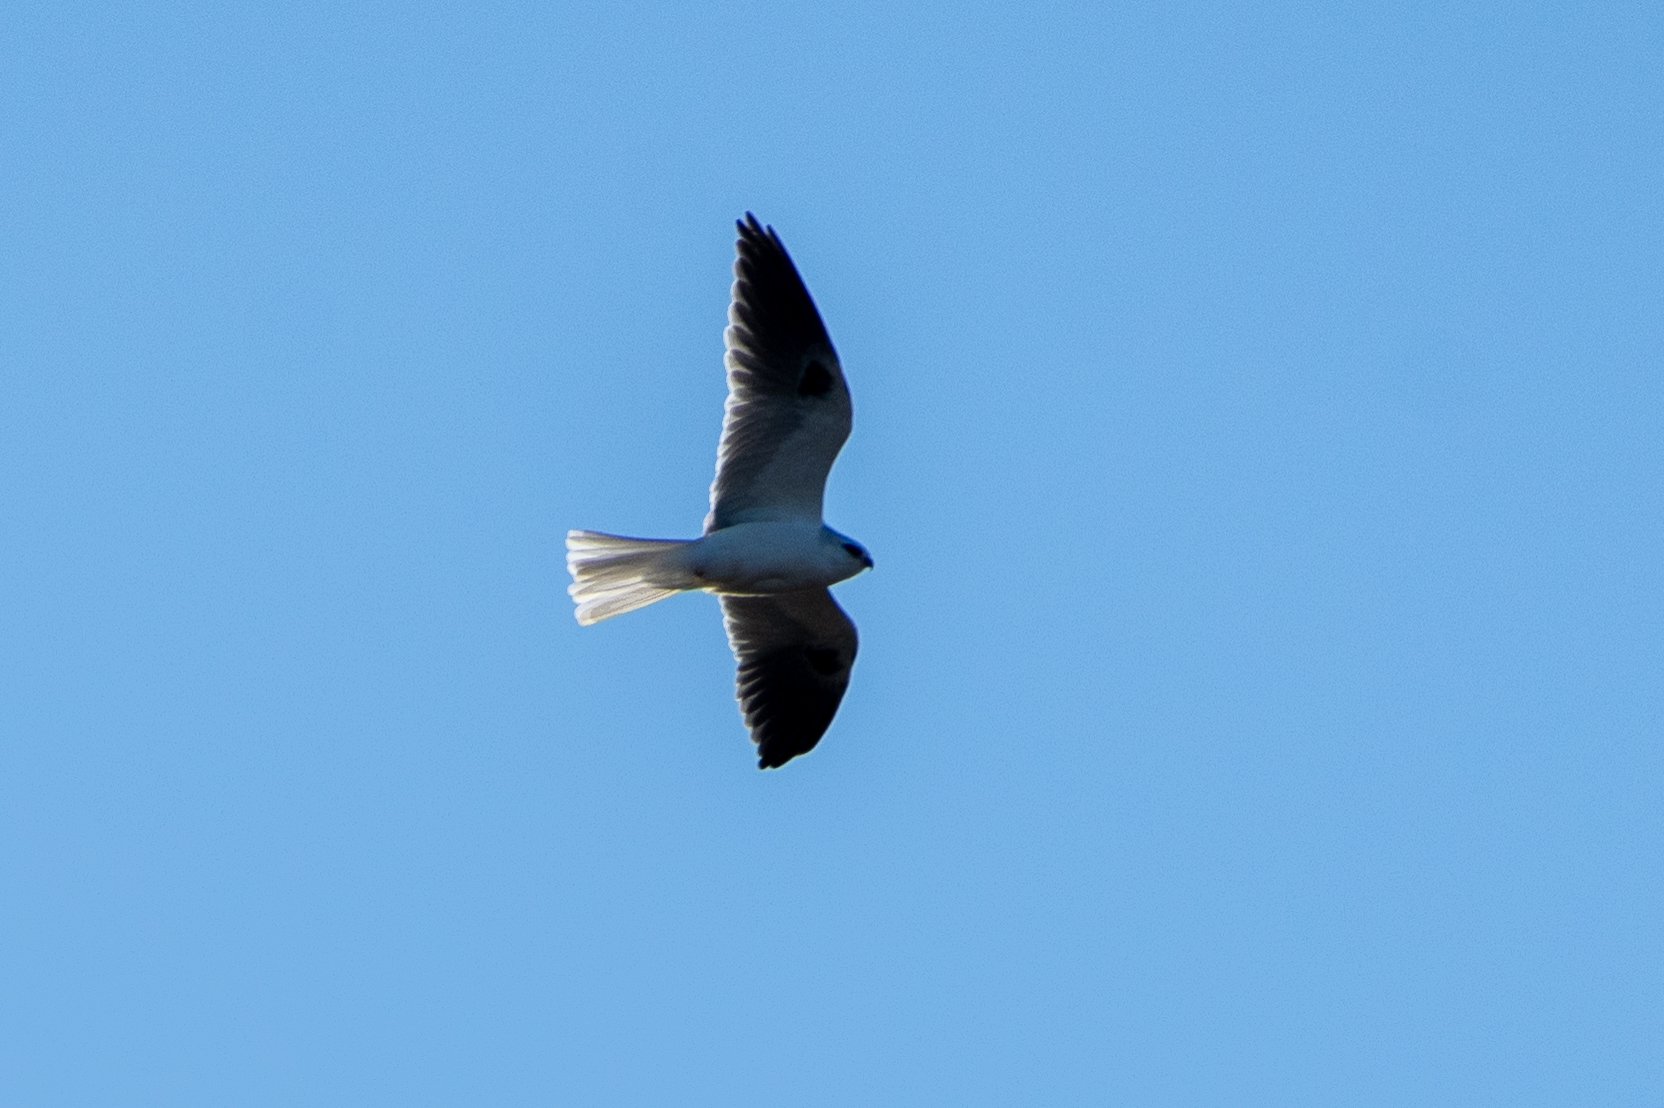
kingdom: Animalia
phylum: Chordata
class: Aves
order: Accipitriformes
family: Accipitridae
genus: Elanus
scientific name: Elanus leucurus
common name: White-tailed kite
